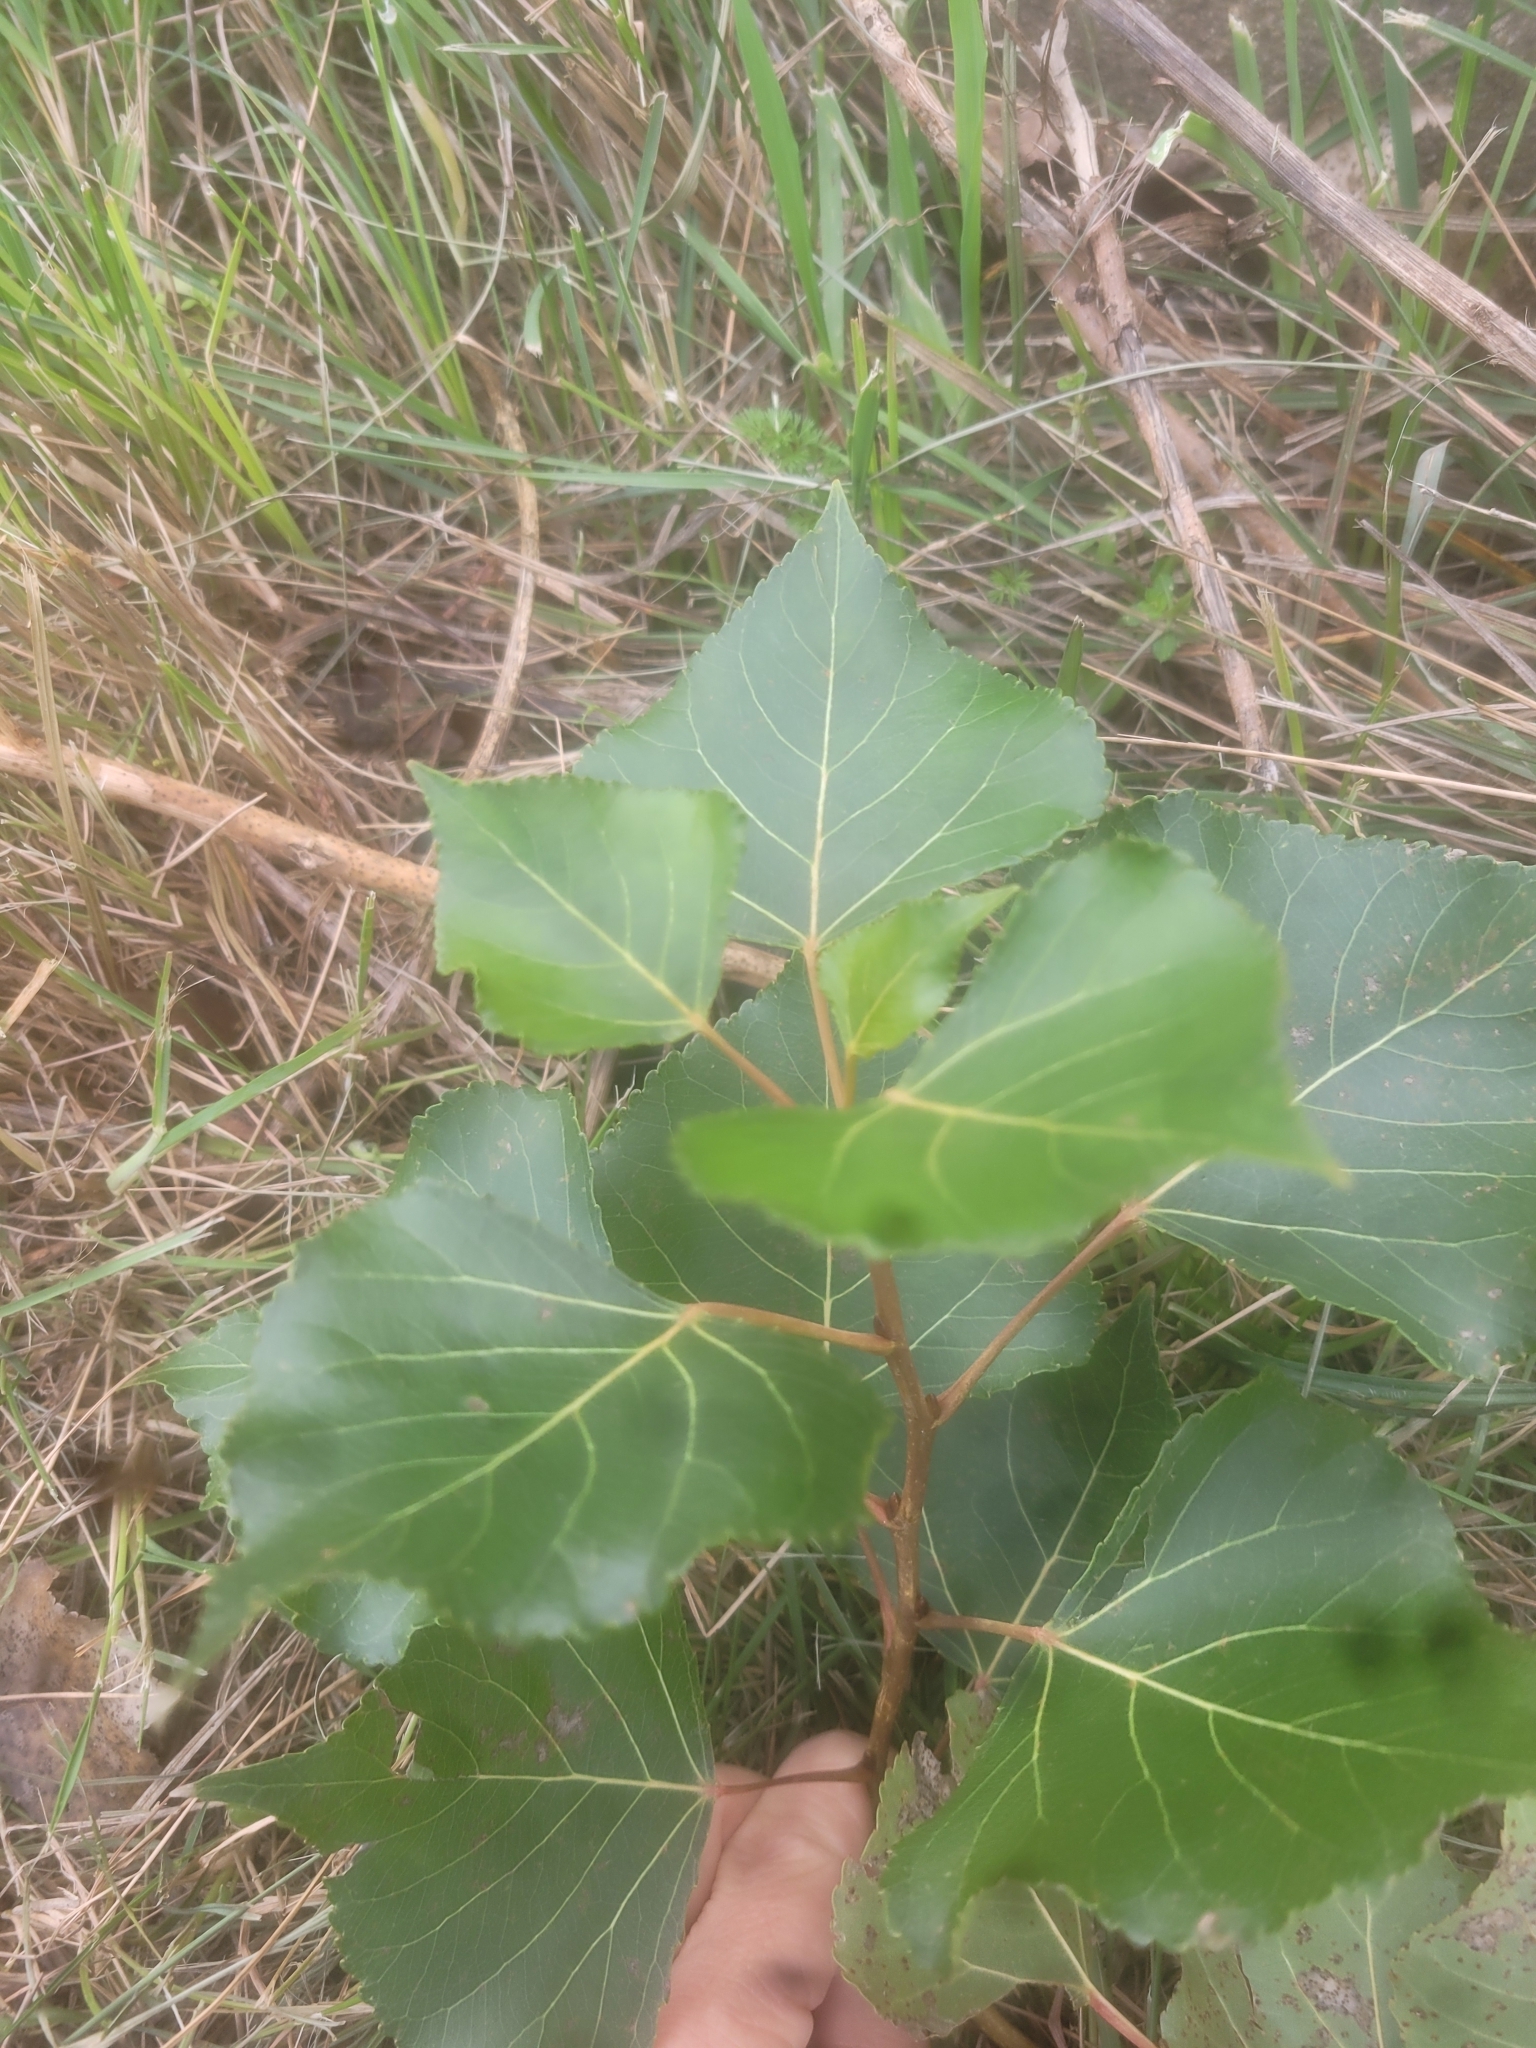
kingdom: Plantae
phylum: Tracheophyta
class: Magnoliopsida
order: Malpighiales
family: Salicaceae
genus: Populus
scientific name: Populus nigra
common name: Black poplar
